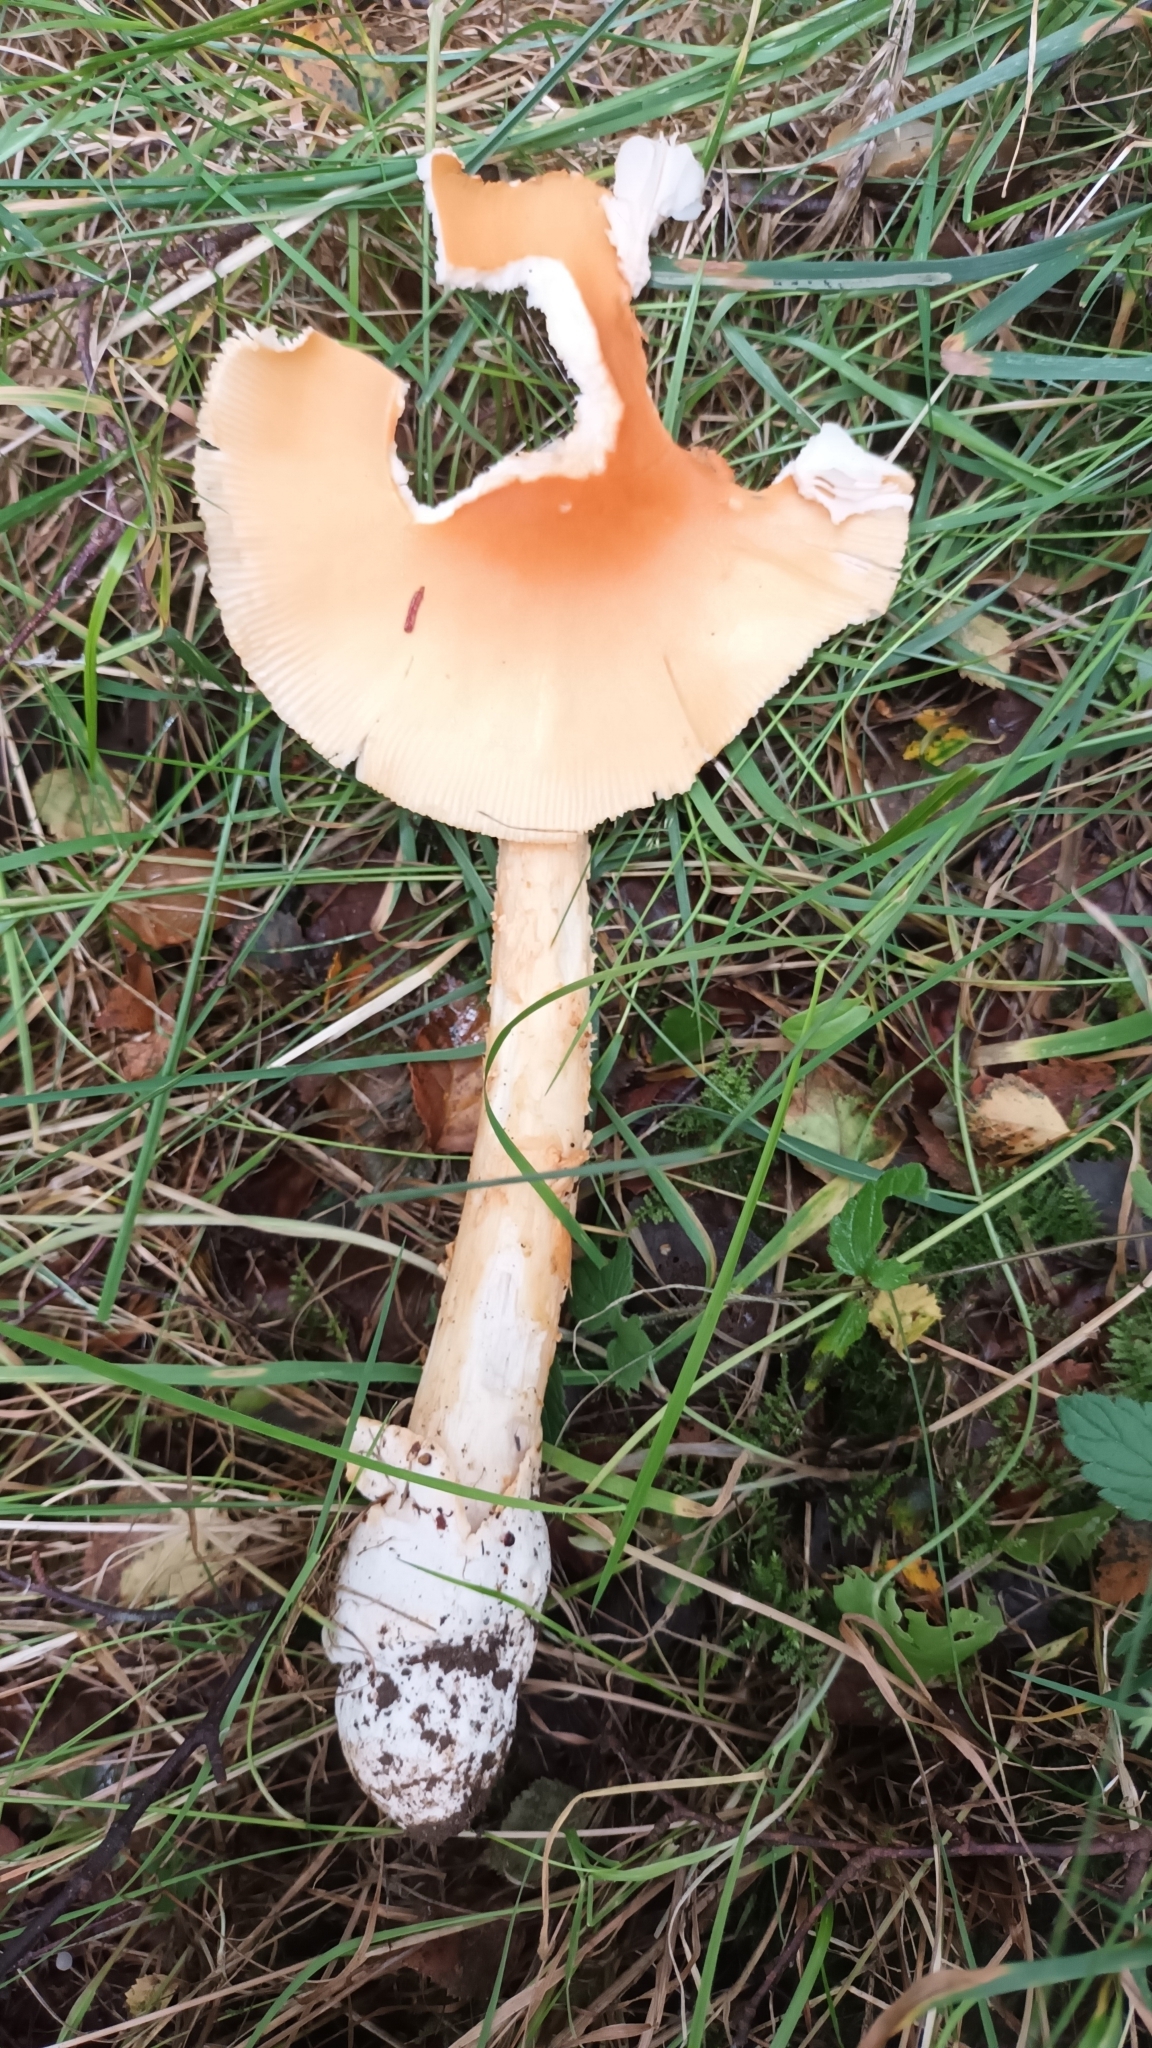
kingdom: Fungi
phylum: Basidiomycota
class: Agaricomycetes
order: Agaricales
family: Amanitaceae
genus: Amanita
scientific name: Amanita crocea
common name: Orange grisette
